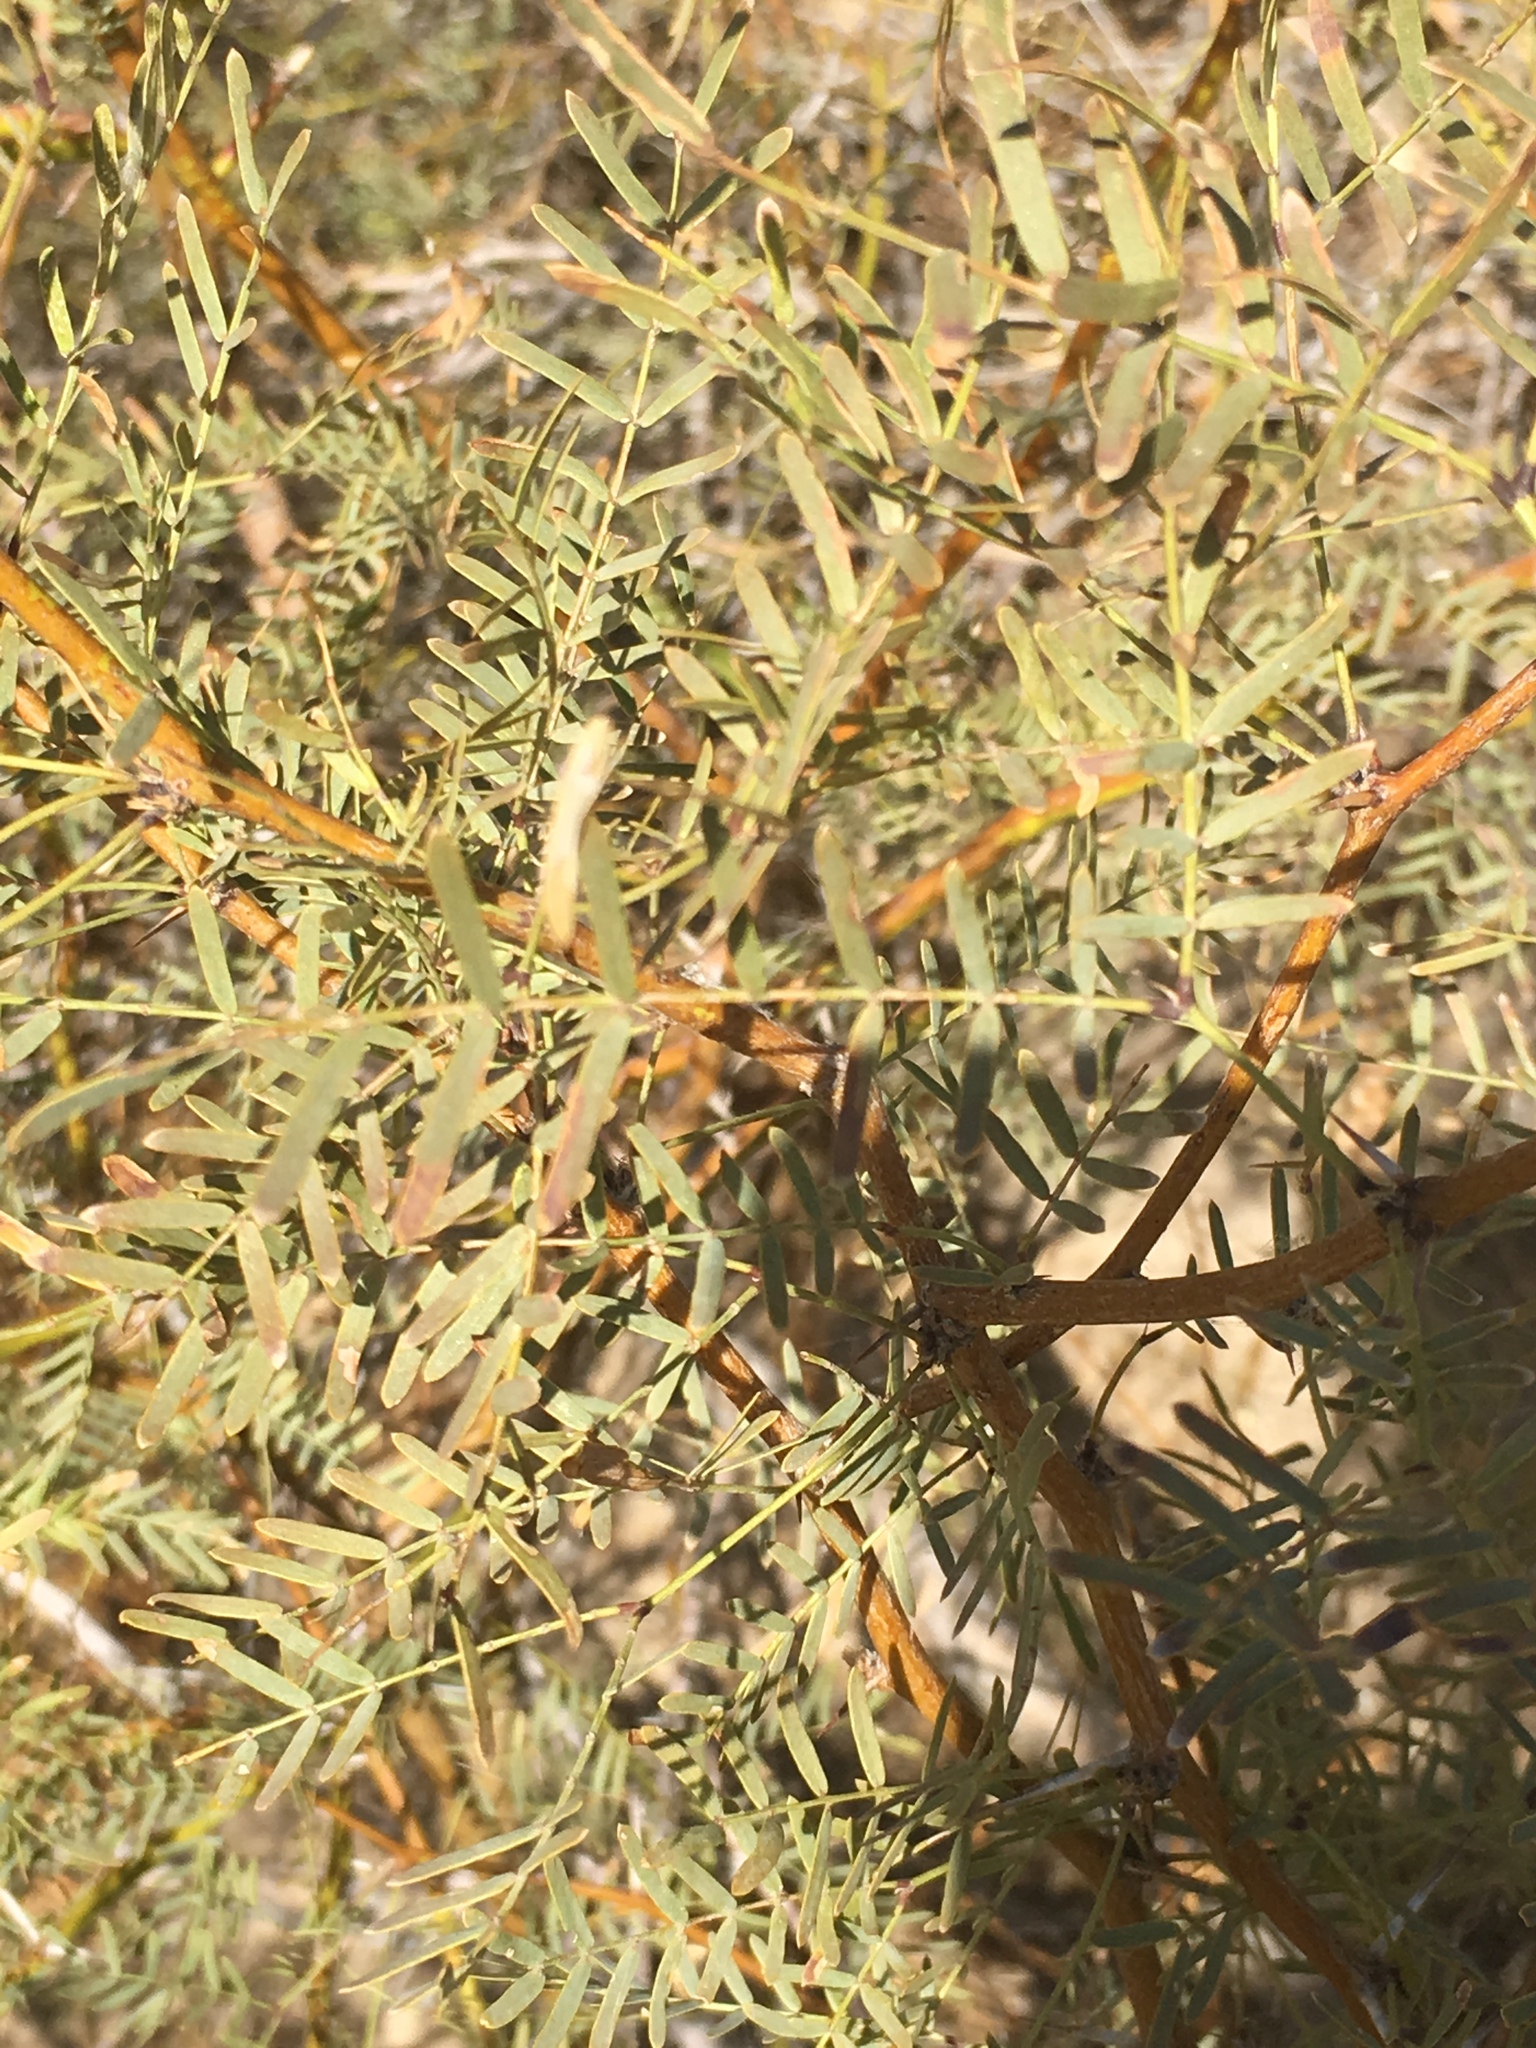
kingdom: Plantae
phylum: Tracheophyta
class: Magnoliopsida
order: Fabales
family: Fabaceae
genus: Prosopis
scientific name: Prosopis pubescens
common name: Screw-bean
